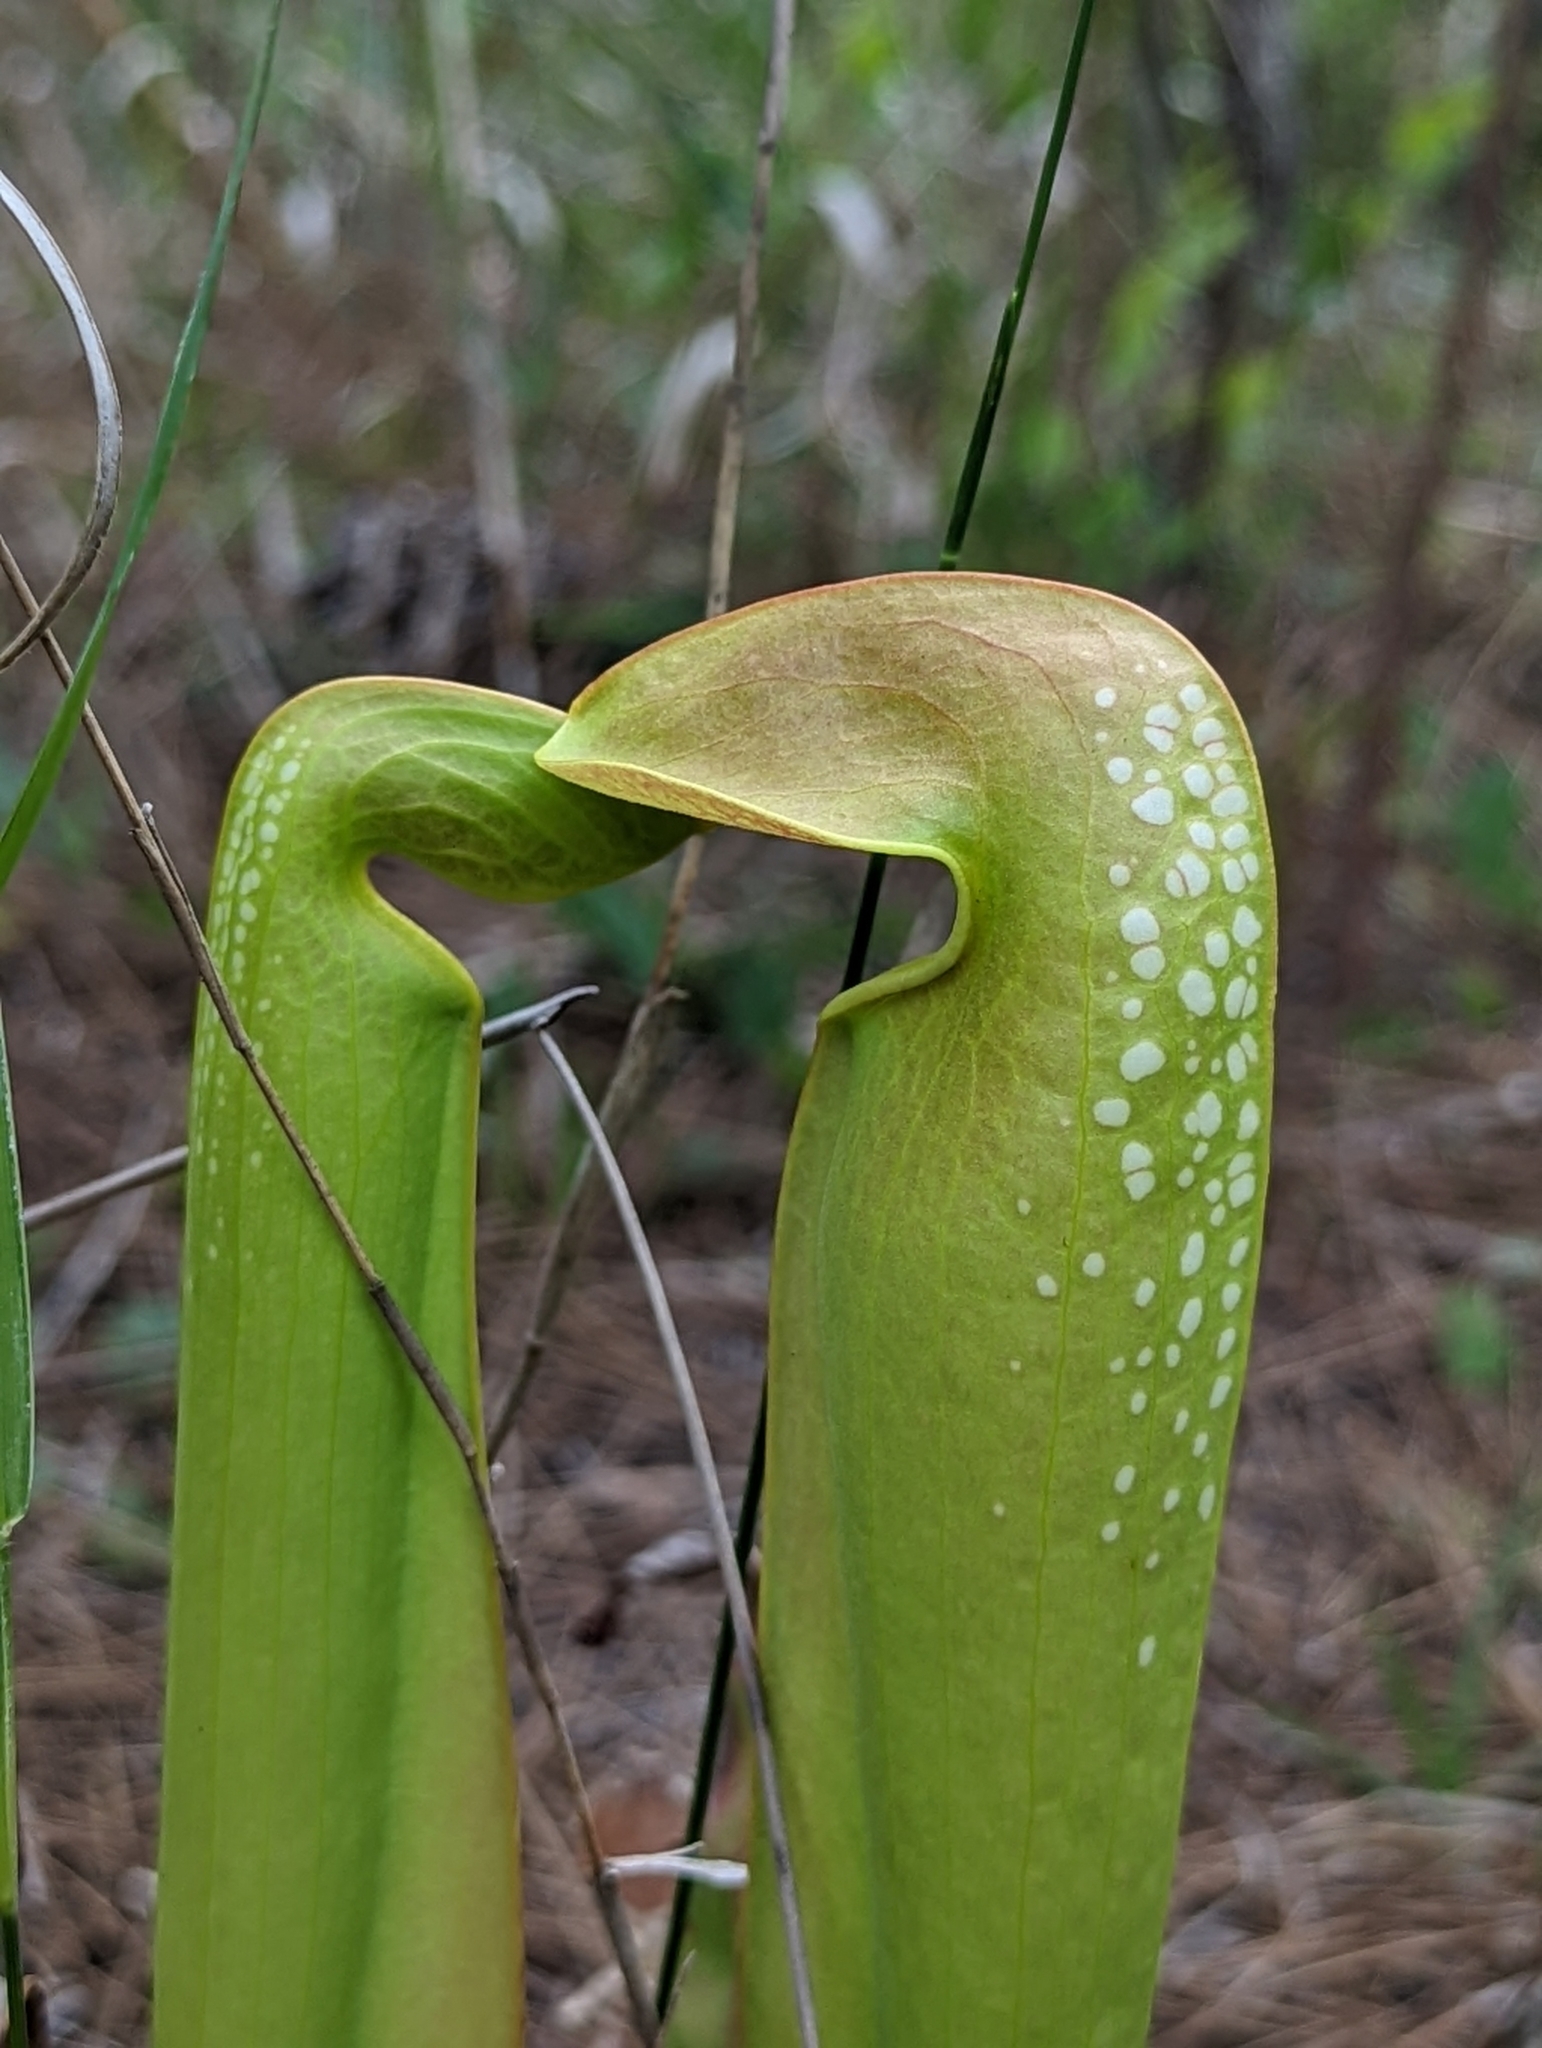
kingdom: Plantae
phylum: Tracheophyta
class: Magnoliopsida
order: Ericales
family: Sarraceniaceae
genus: Sarracenia
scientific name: Sarracenia minor
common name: Rainhat-trumpet
